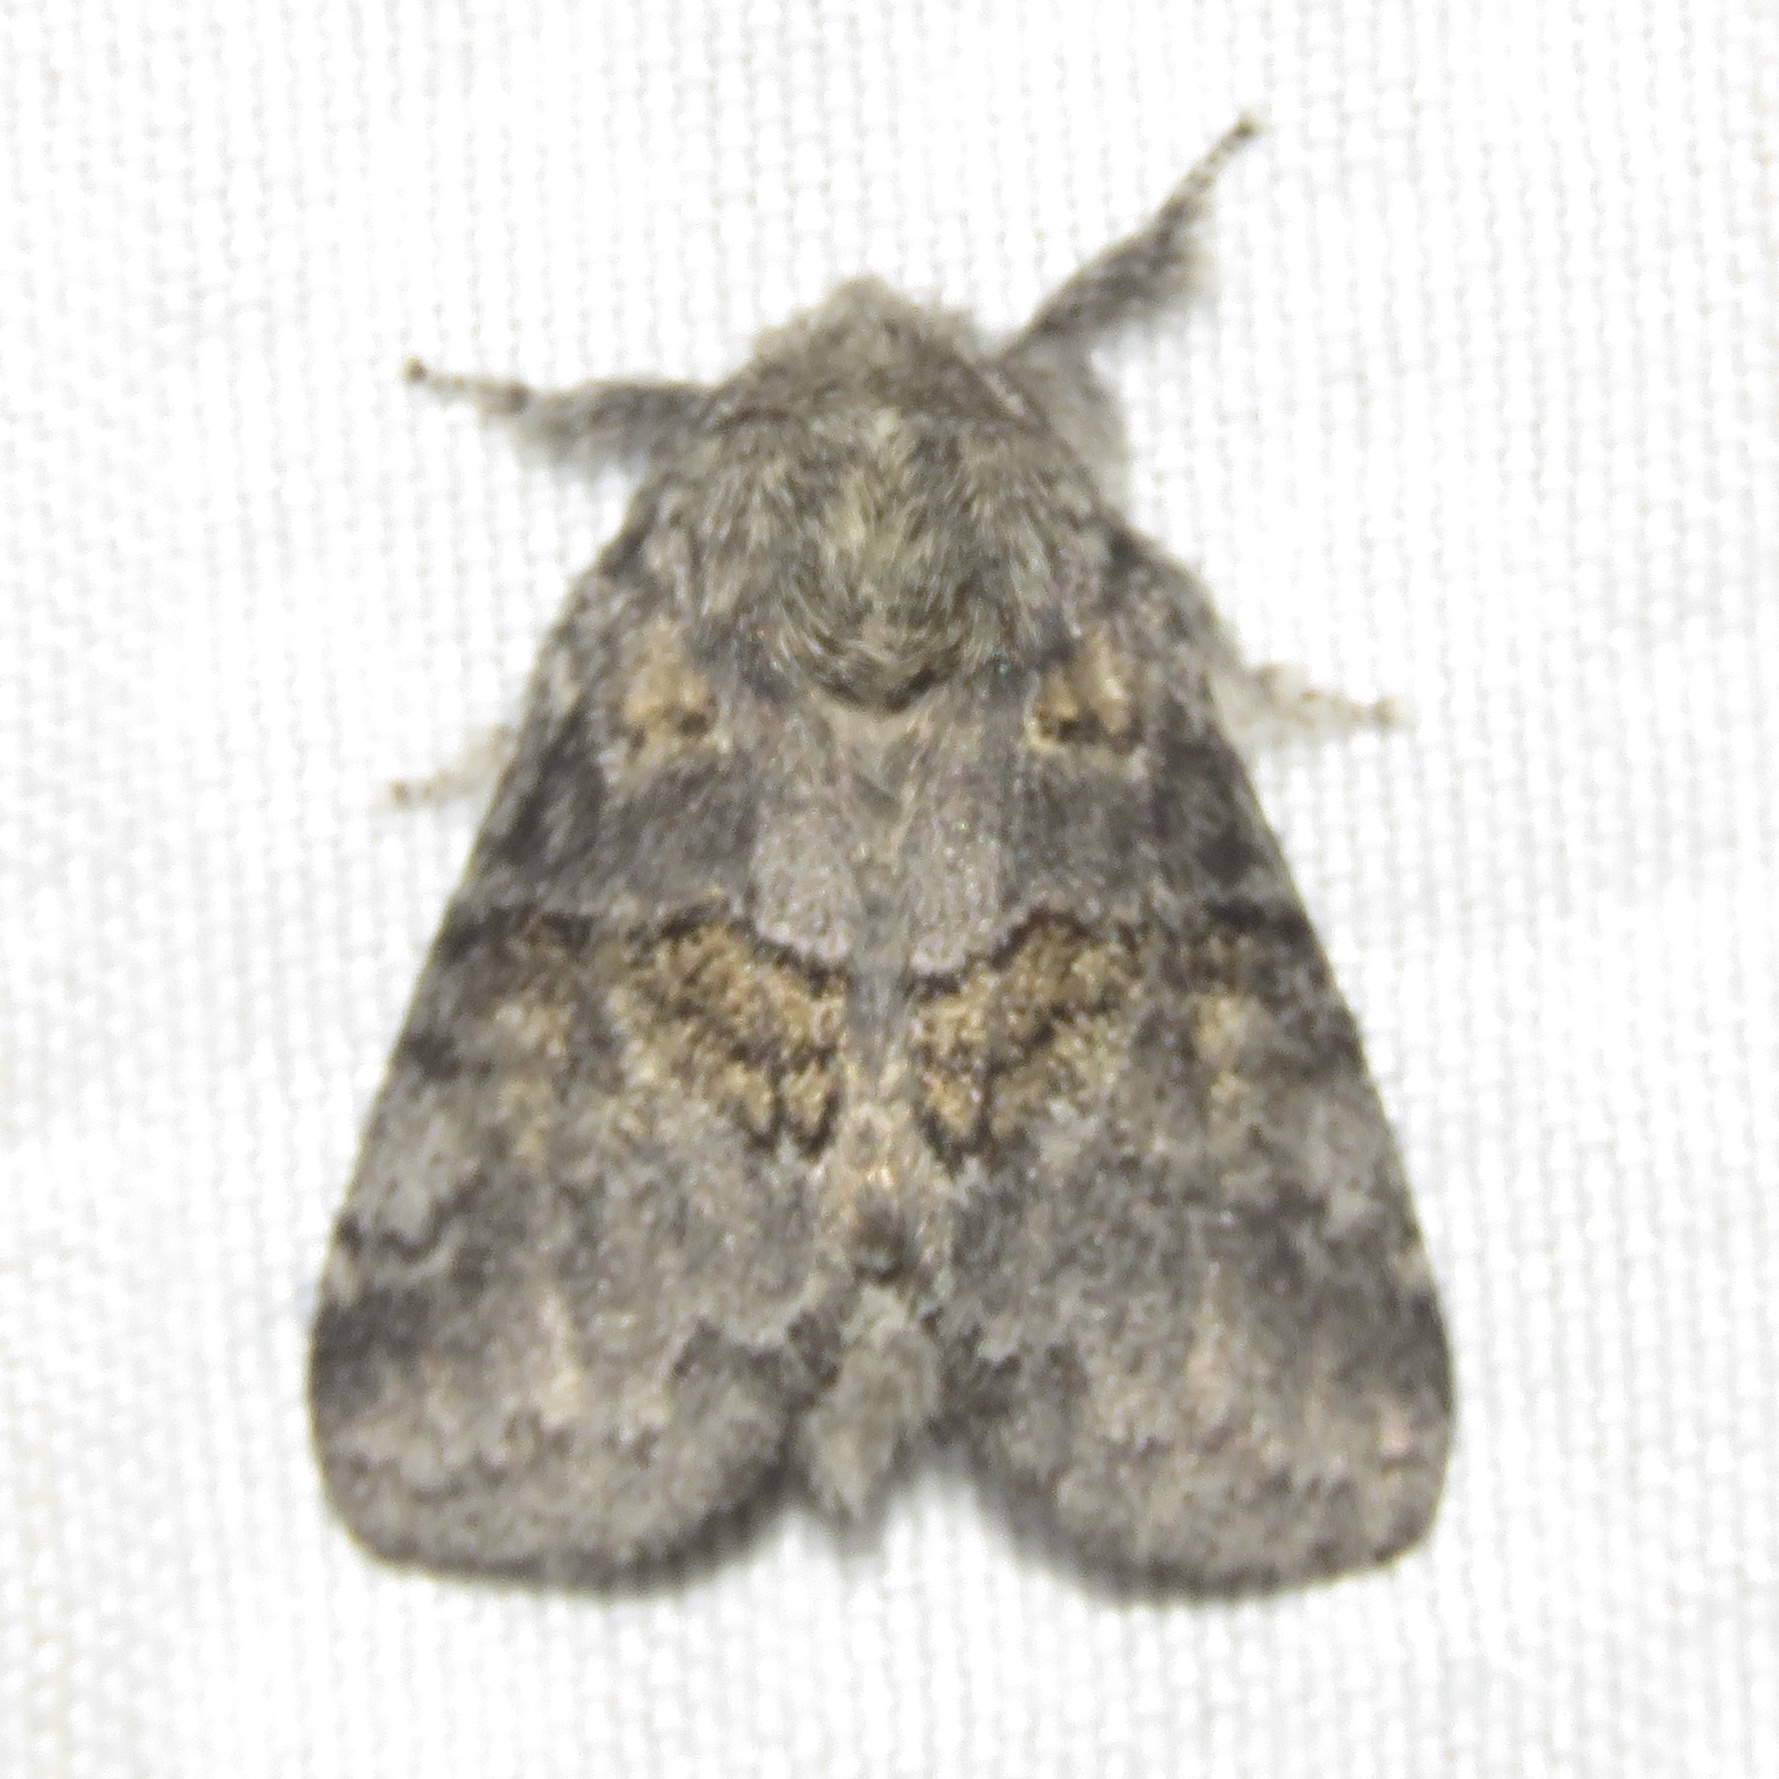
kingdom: Animalia
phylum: Arthropoda
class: Insecta
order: Lepidoptera
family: Notodontidae
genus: Gluphisia
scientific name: Gluphisia septentrionis
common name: Common gluphisia
